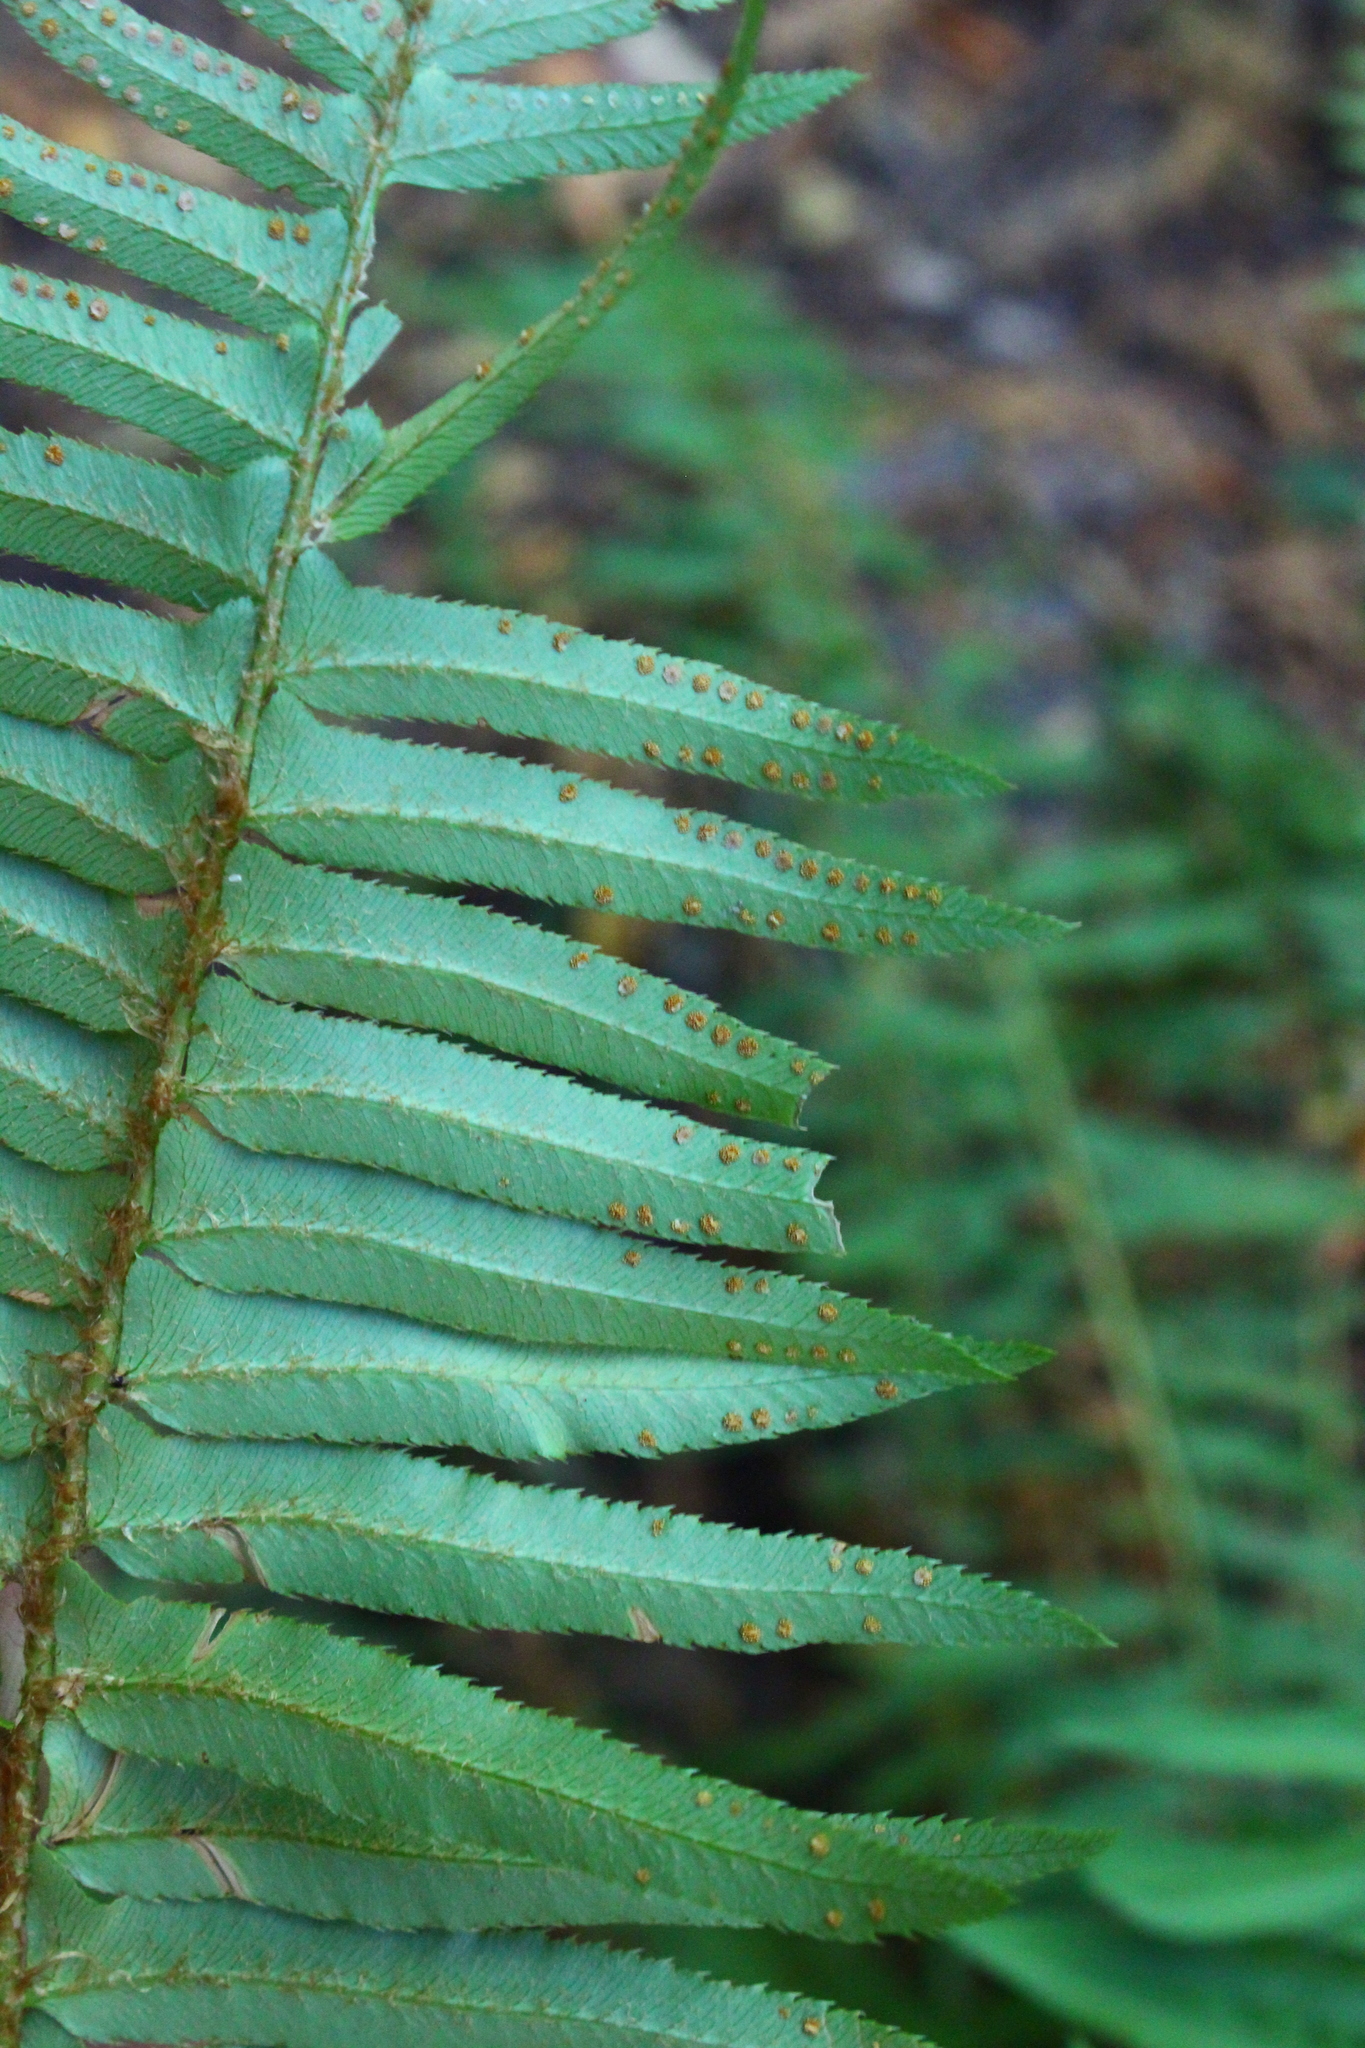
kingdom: Plantae
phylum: Tracheophyta
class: Polypodiopsida
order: Polypodiales
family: Dryopteridaceae
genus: Polystichum
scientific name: Polystichum munitum
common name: Western sword-fern
